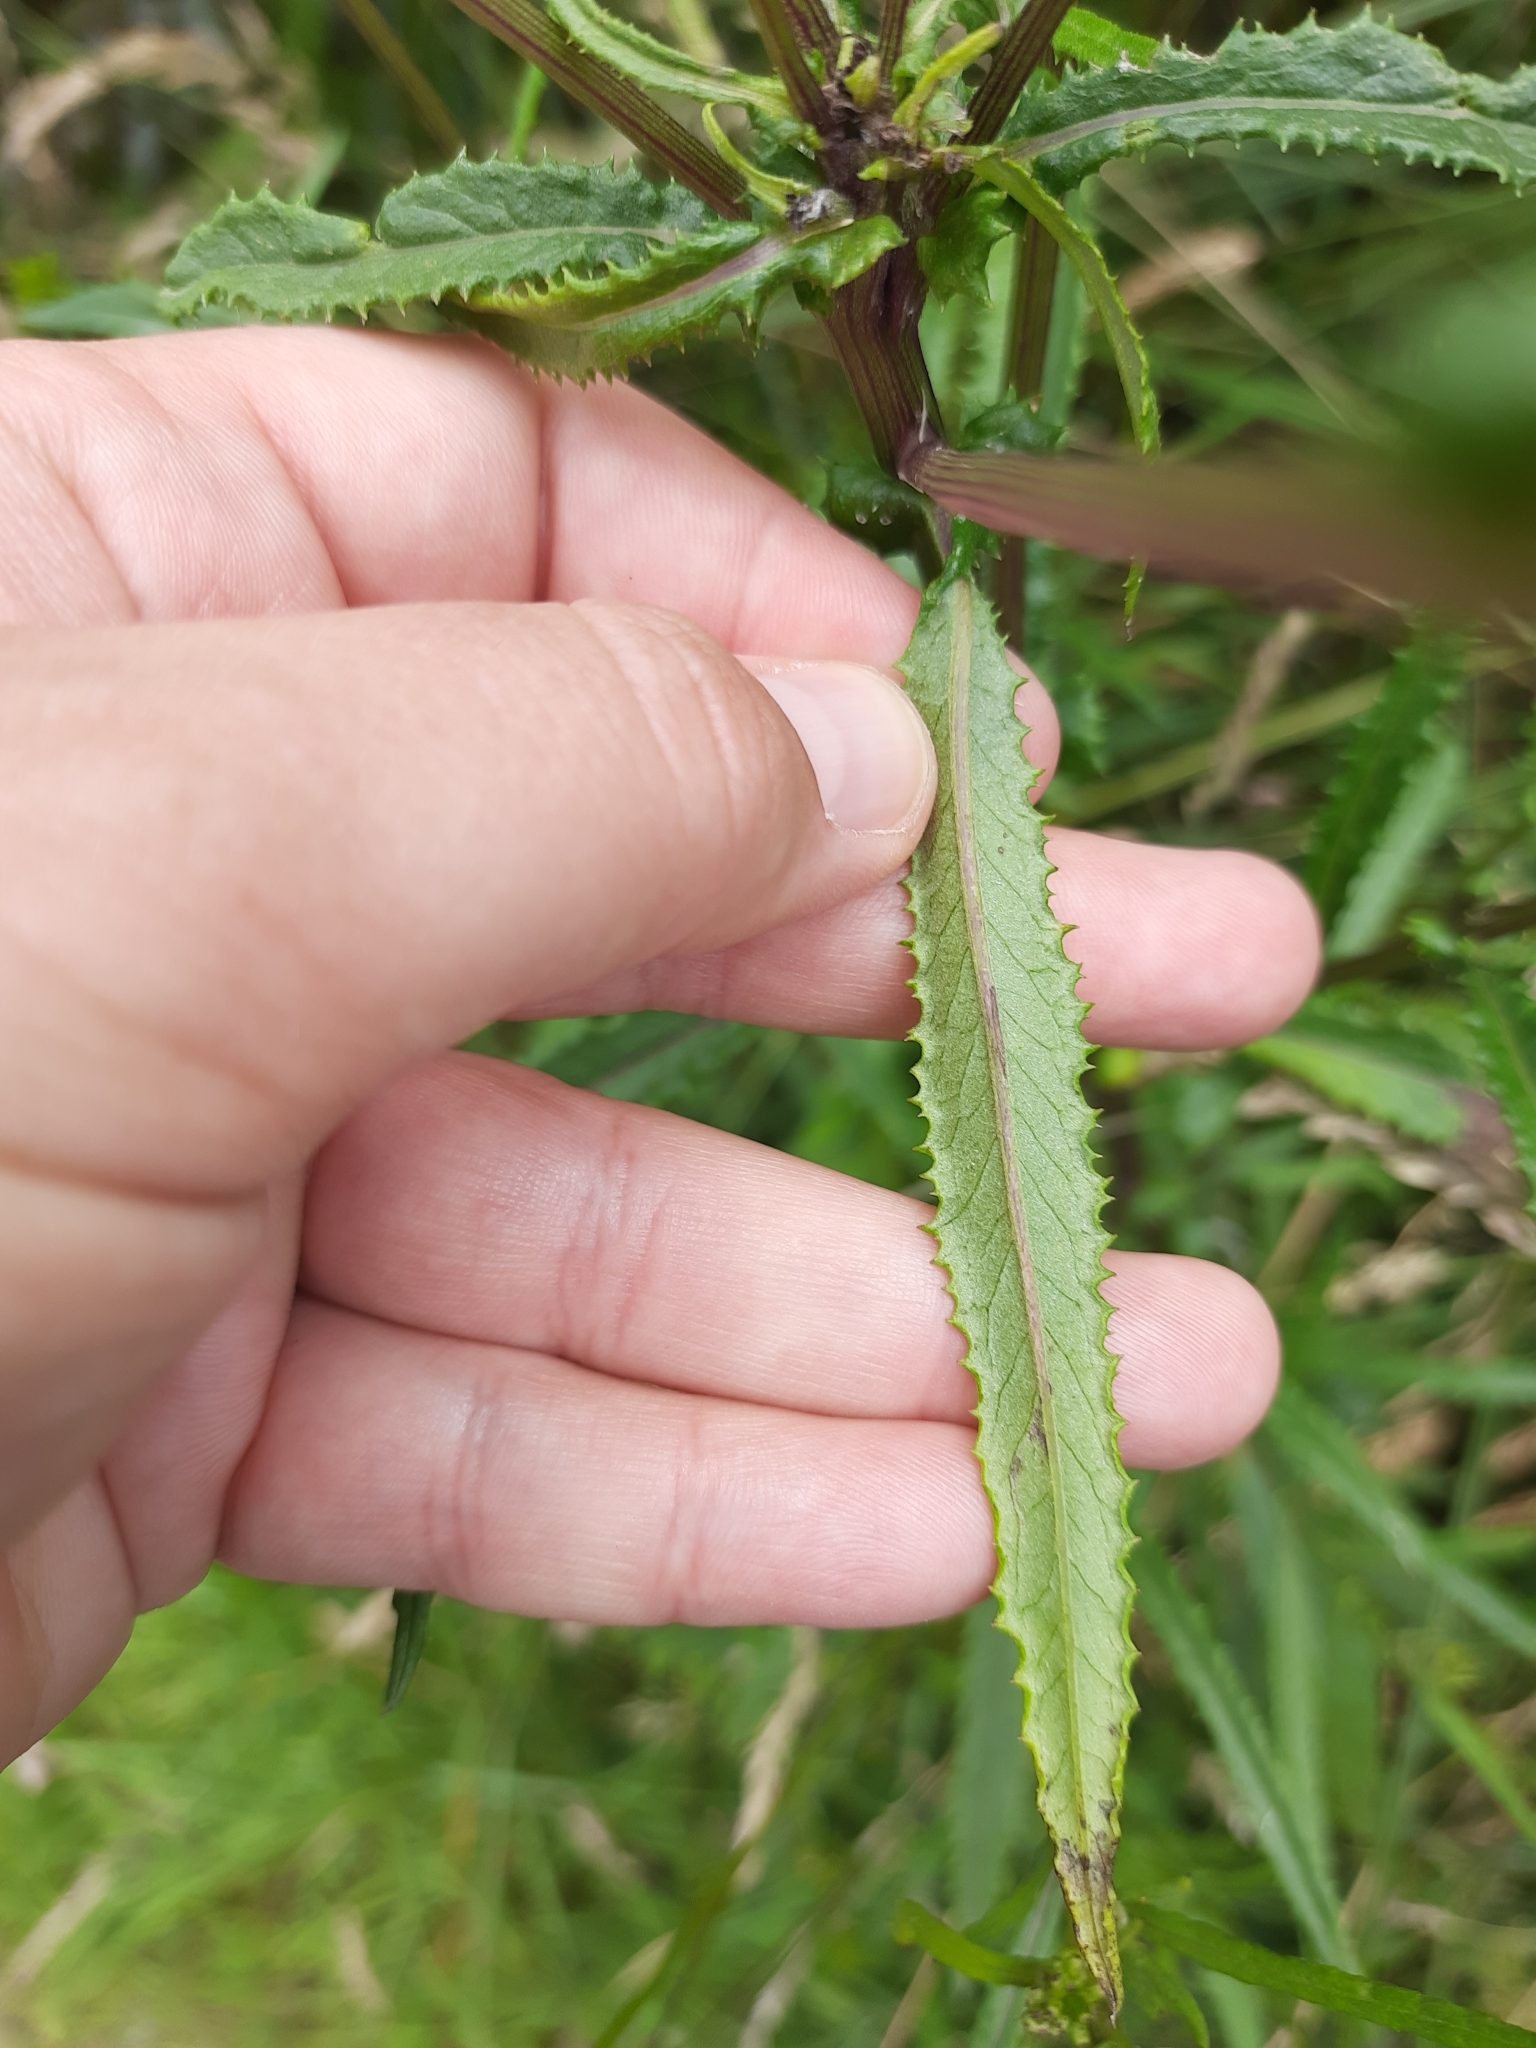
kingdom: Plantae
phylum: Tracheophyta
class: Magnoliopsida
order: Asterales
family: Asteraceae
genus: Senecio
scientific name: Senecio minimus
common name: Toothed fireweed
